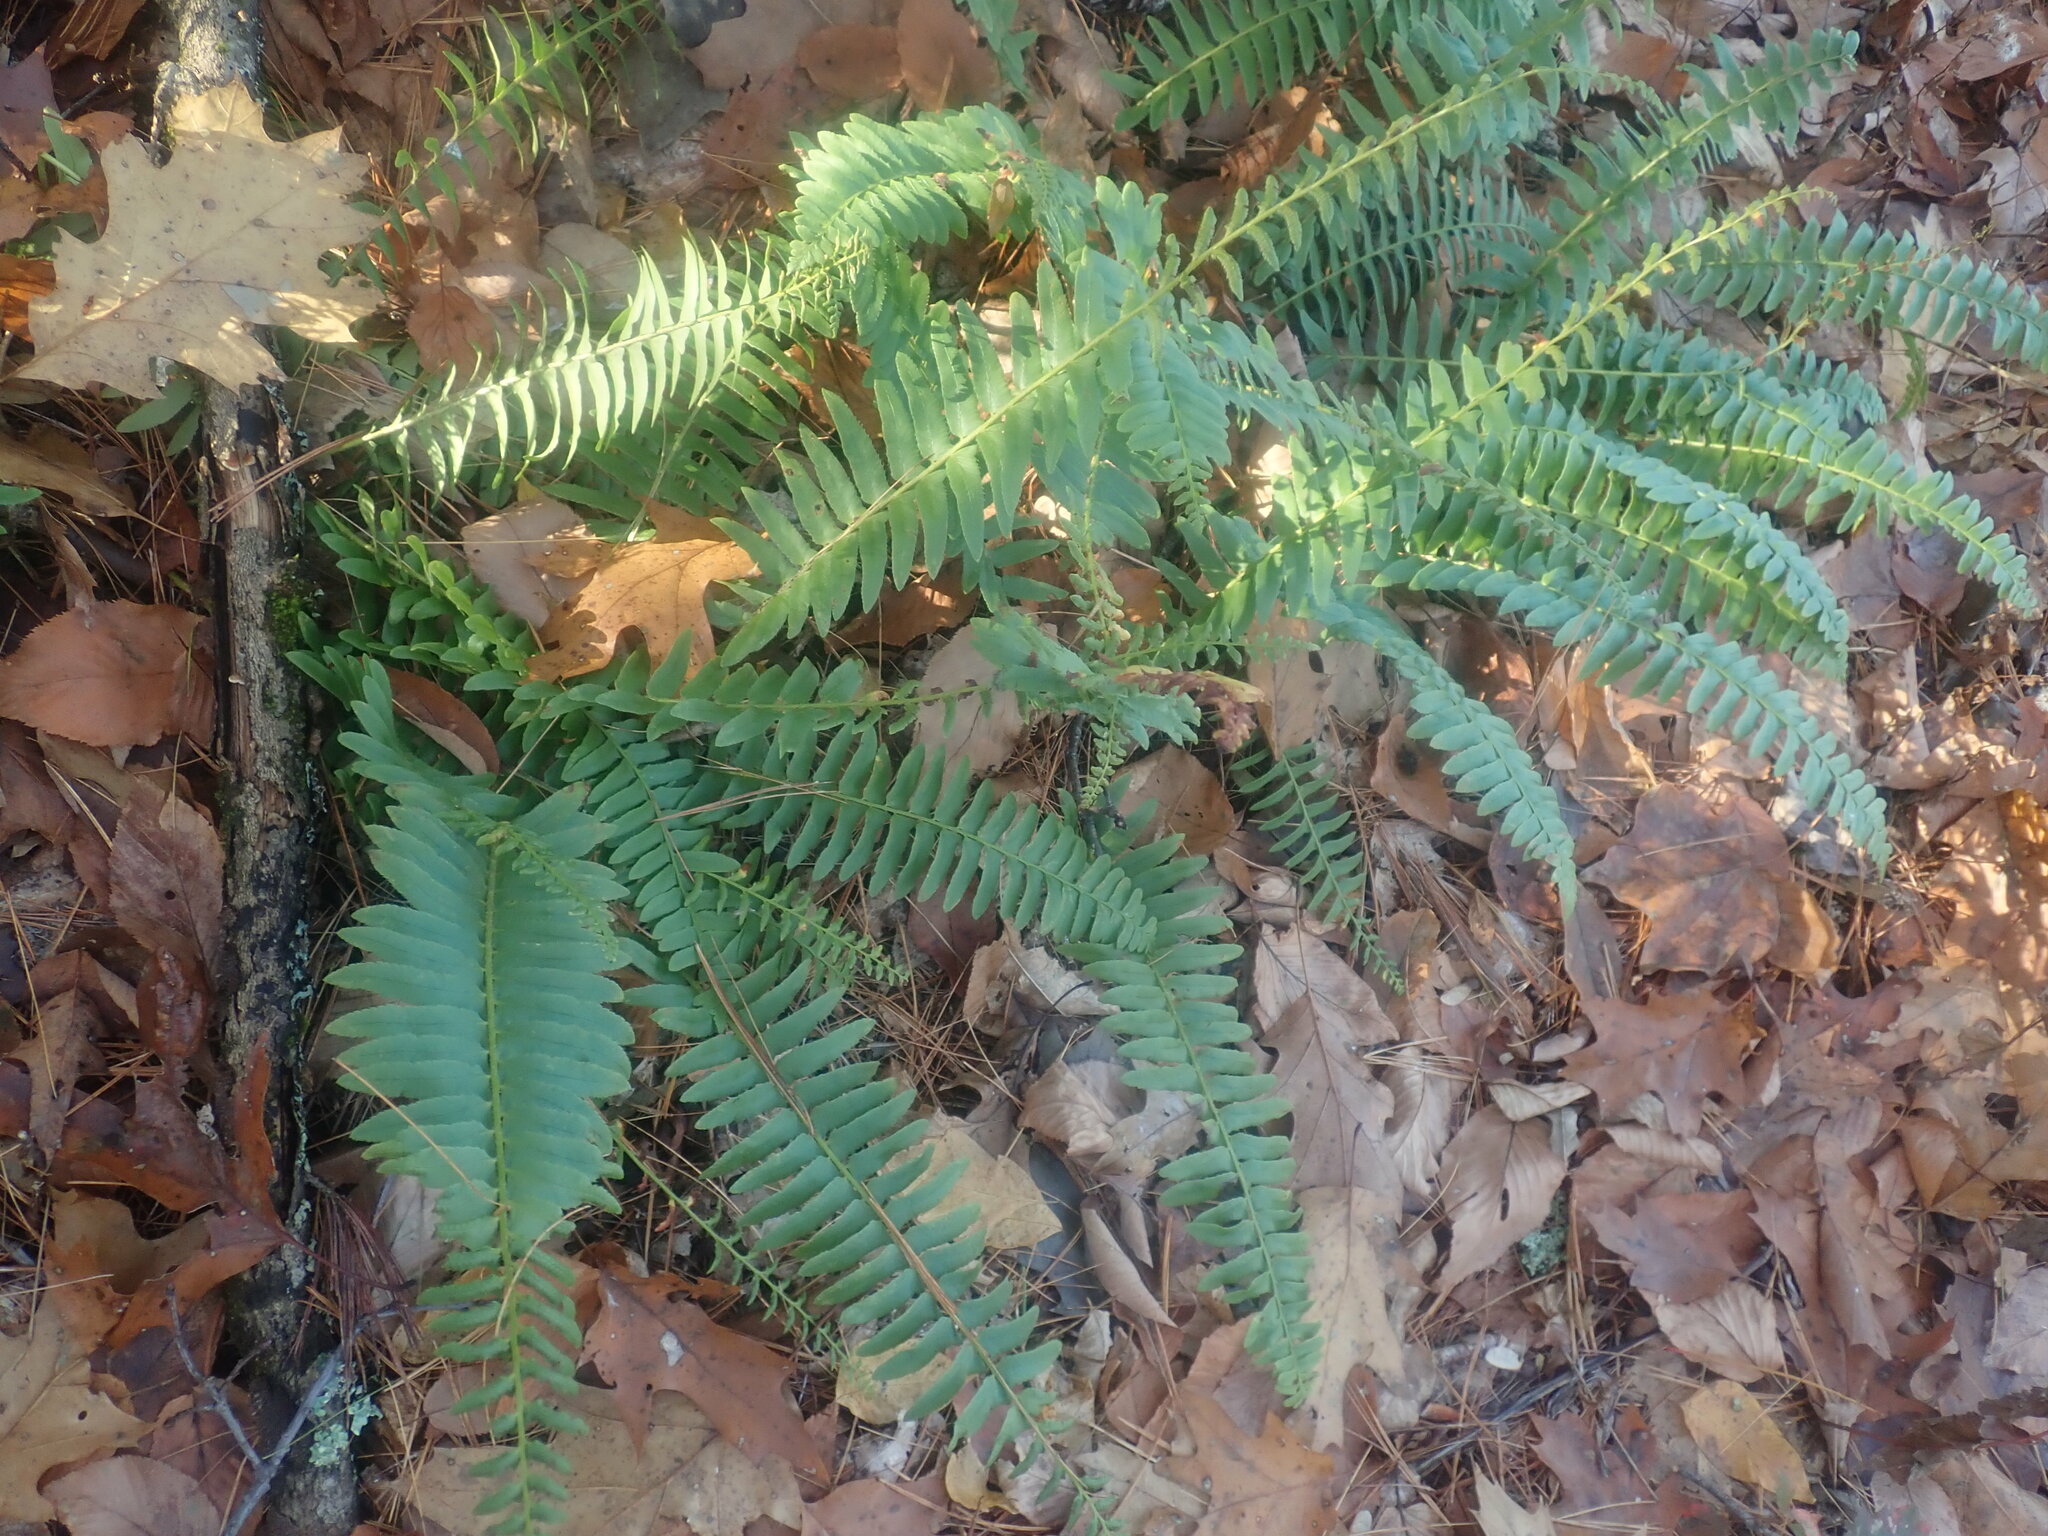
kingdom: Plantae
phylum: Tracheophyta
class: Polypodiopsida
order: Polypodiales
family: Dryopteridaceae
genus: Polystichum
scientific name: Polystichum acrostichoides
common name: Christmas fern
